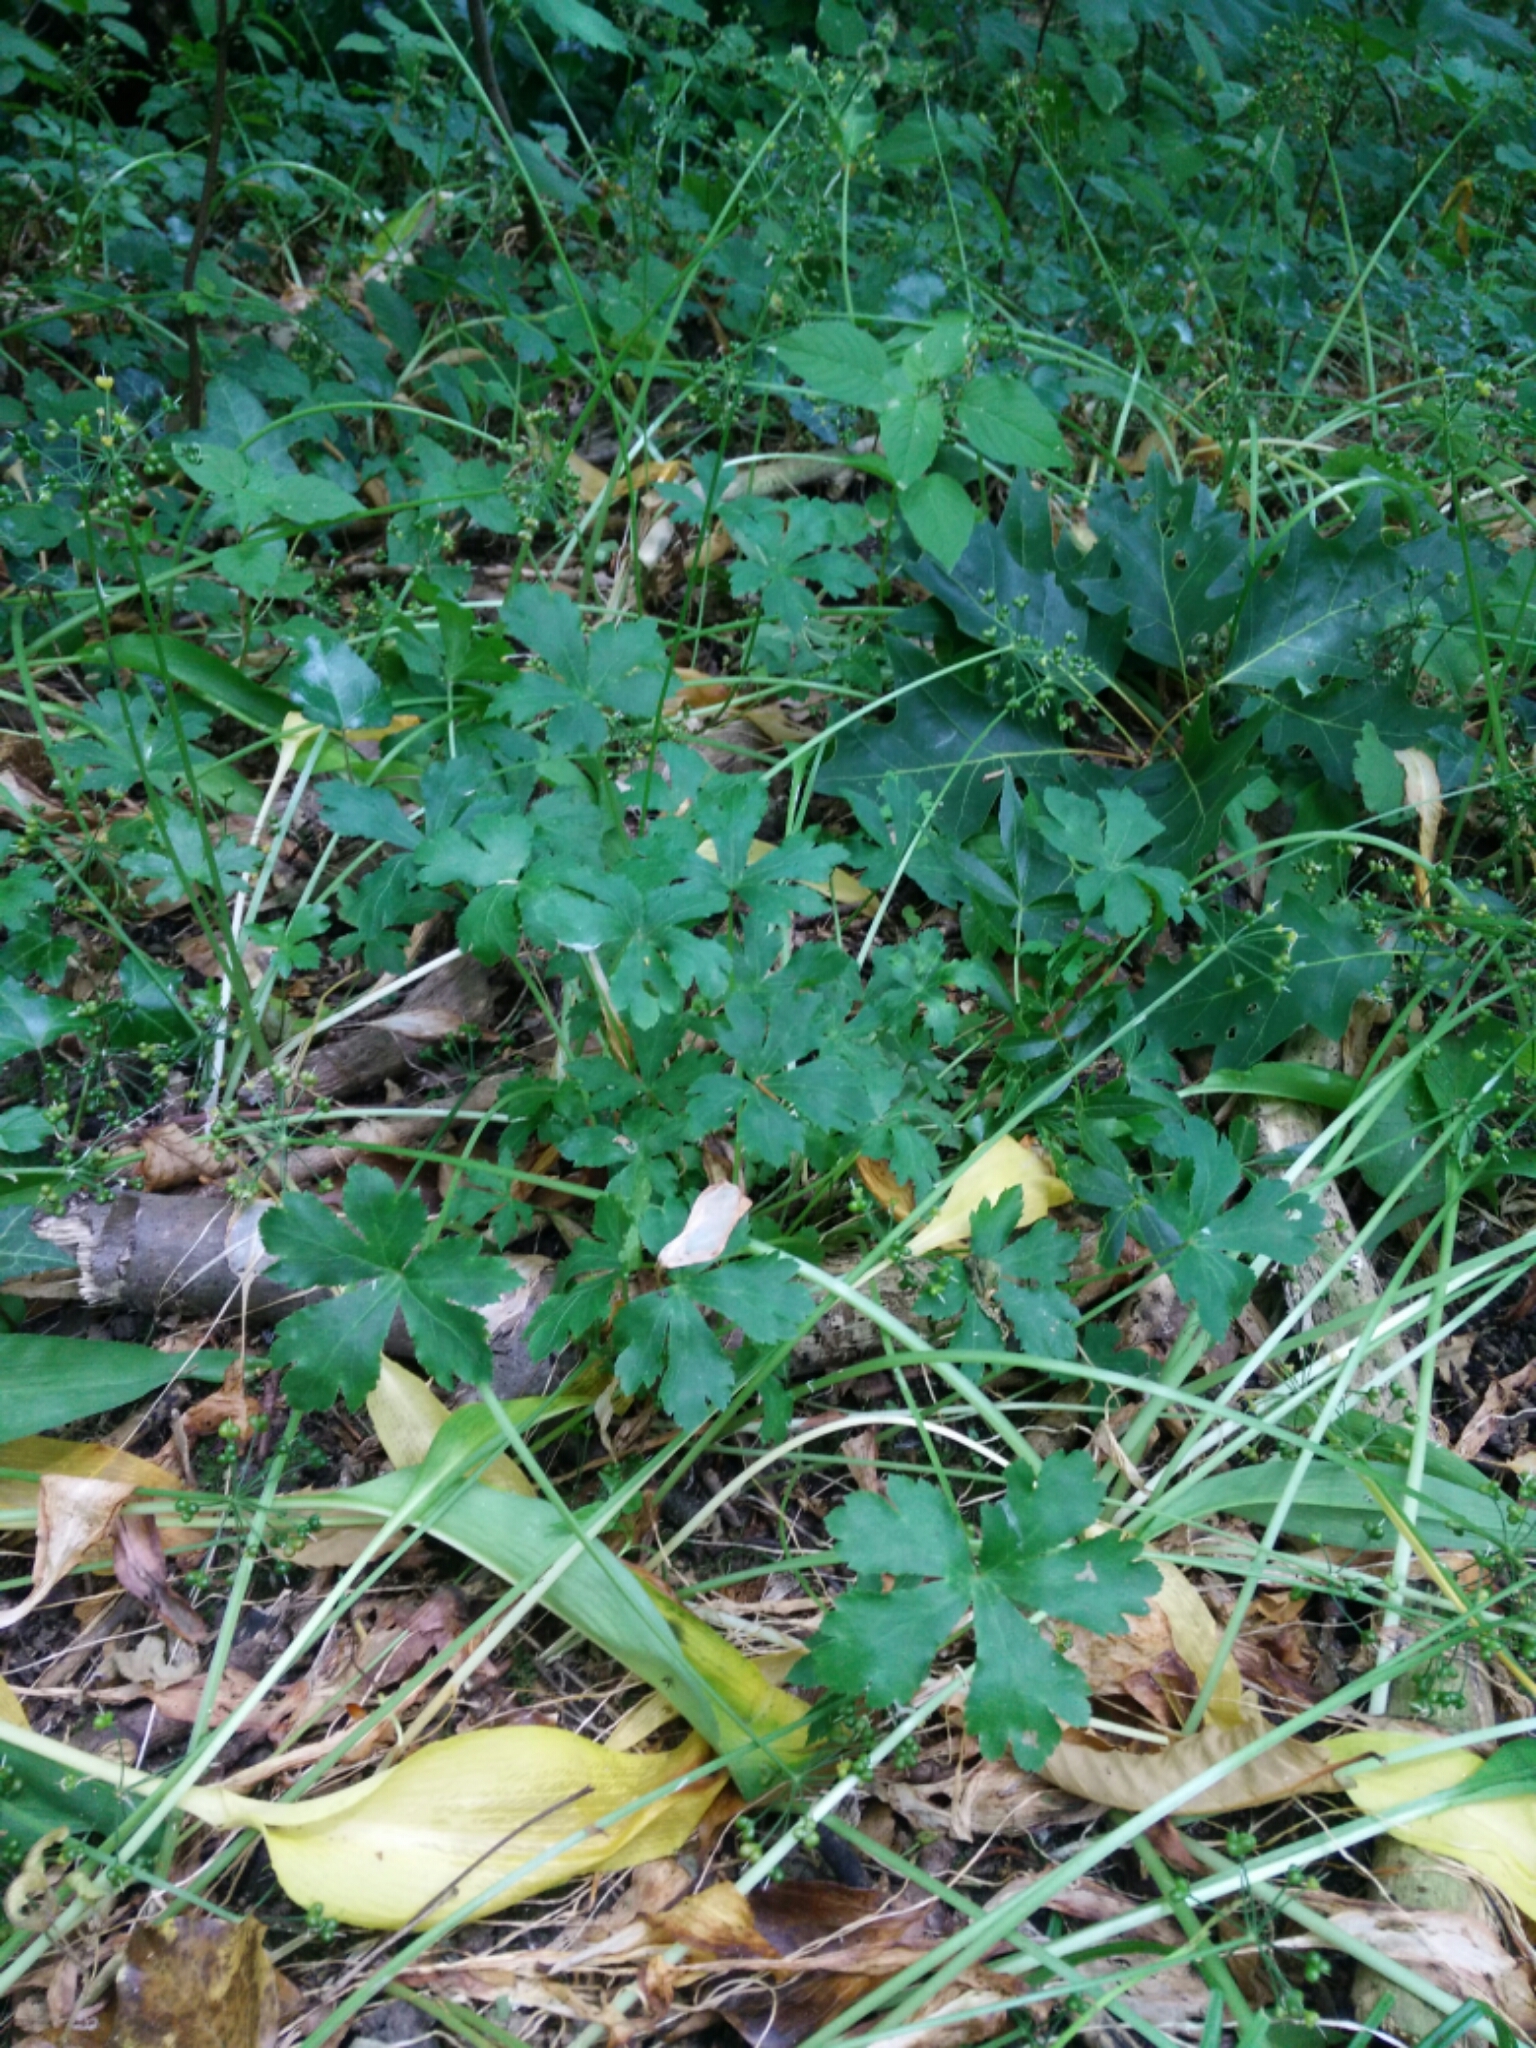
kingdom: Plantae
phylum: Tracheophyta
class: Magnoliopsida
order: Apiales
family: Apiaceae
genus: Sanicula
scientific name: Sanicula europaea
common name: Sanicle
